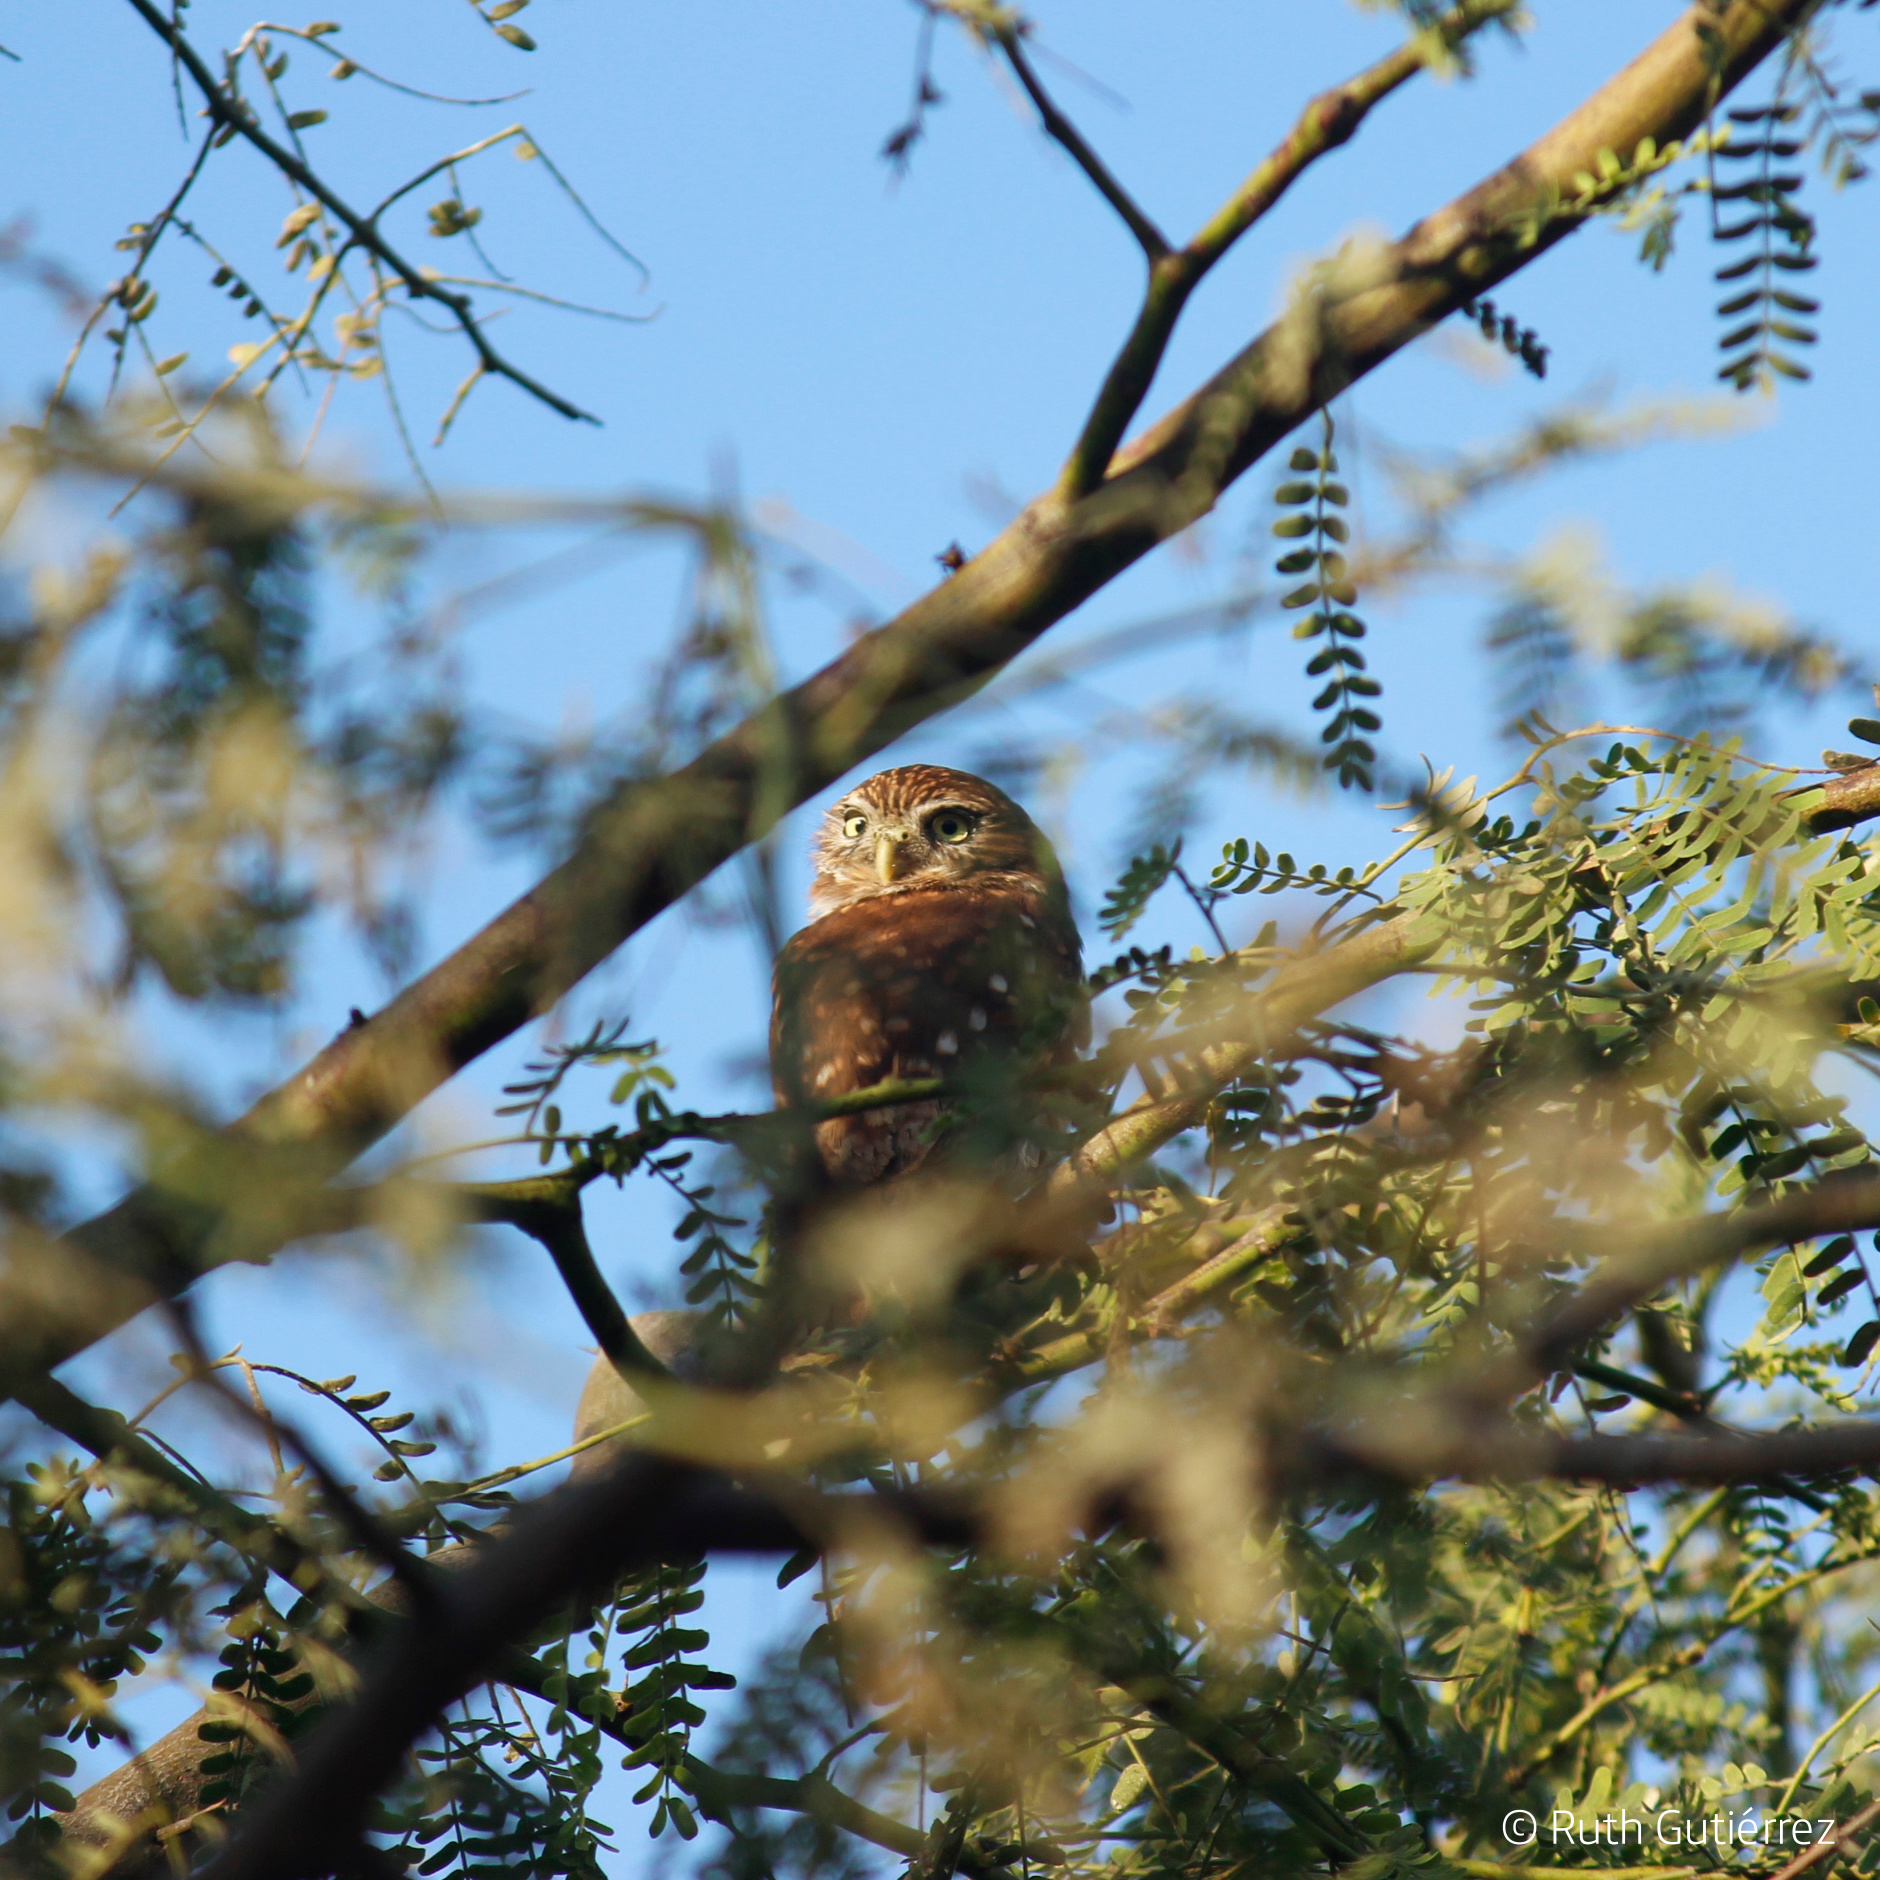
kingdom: Animalia
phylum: Chordata
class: Aves
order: Strigiformes
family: Strigidae
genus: Glaucidium
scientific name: Glaucidium peruanum
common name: Pacific pygmy owl
